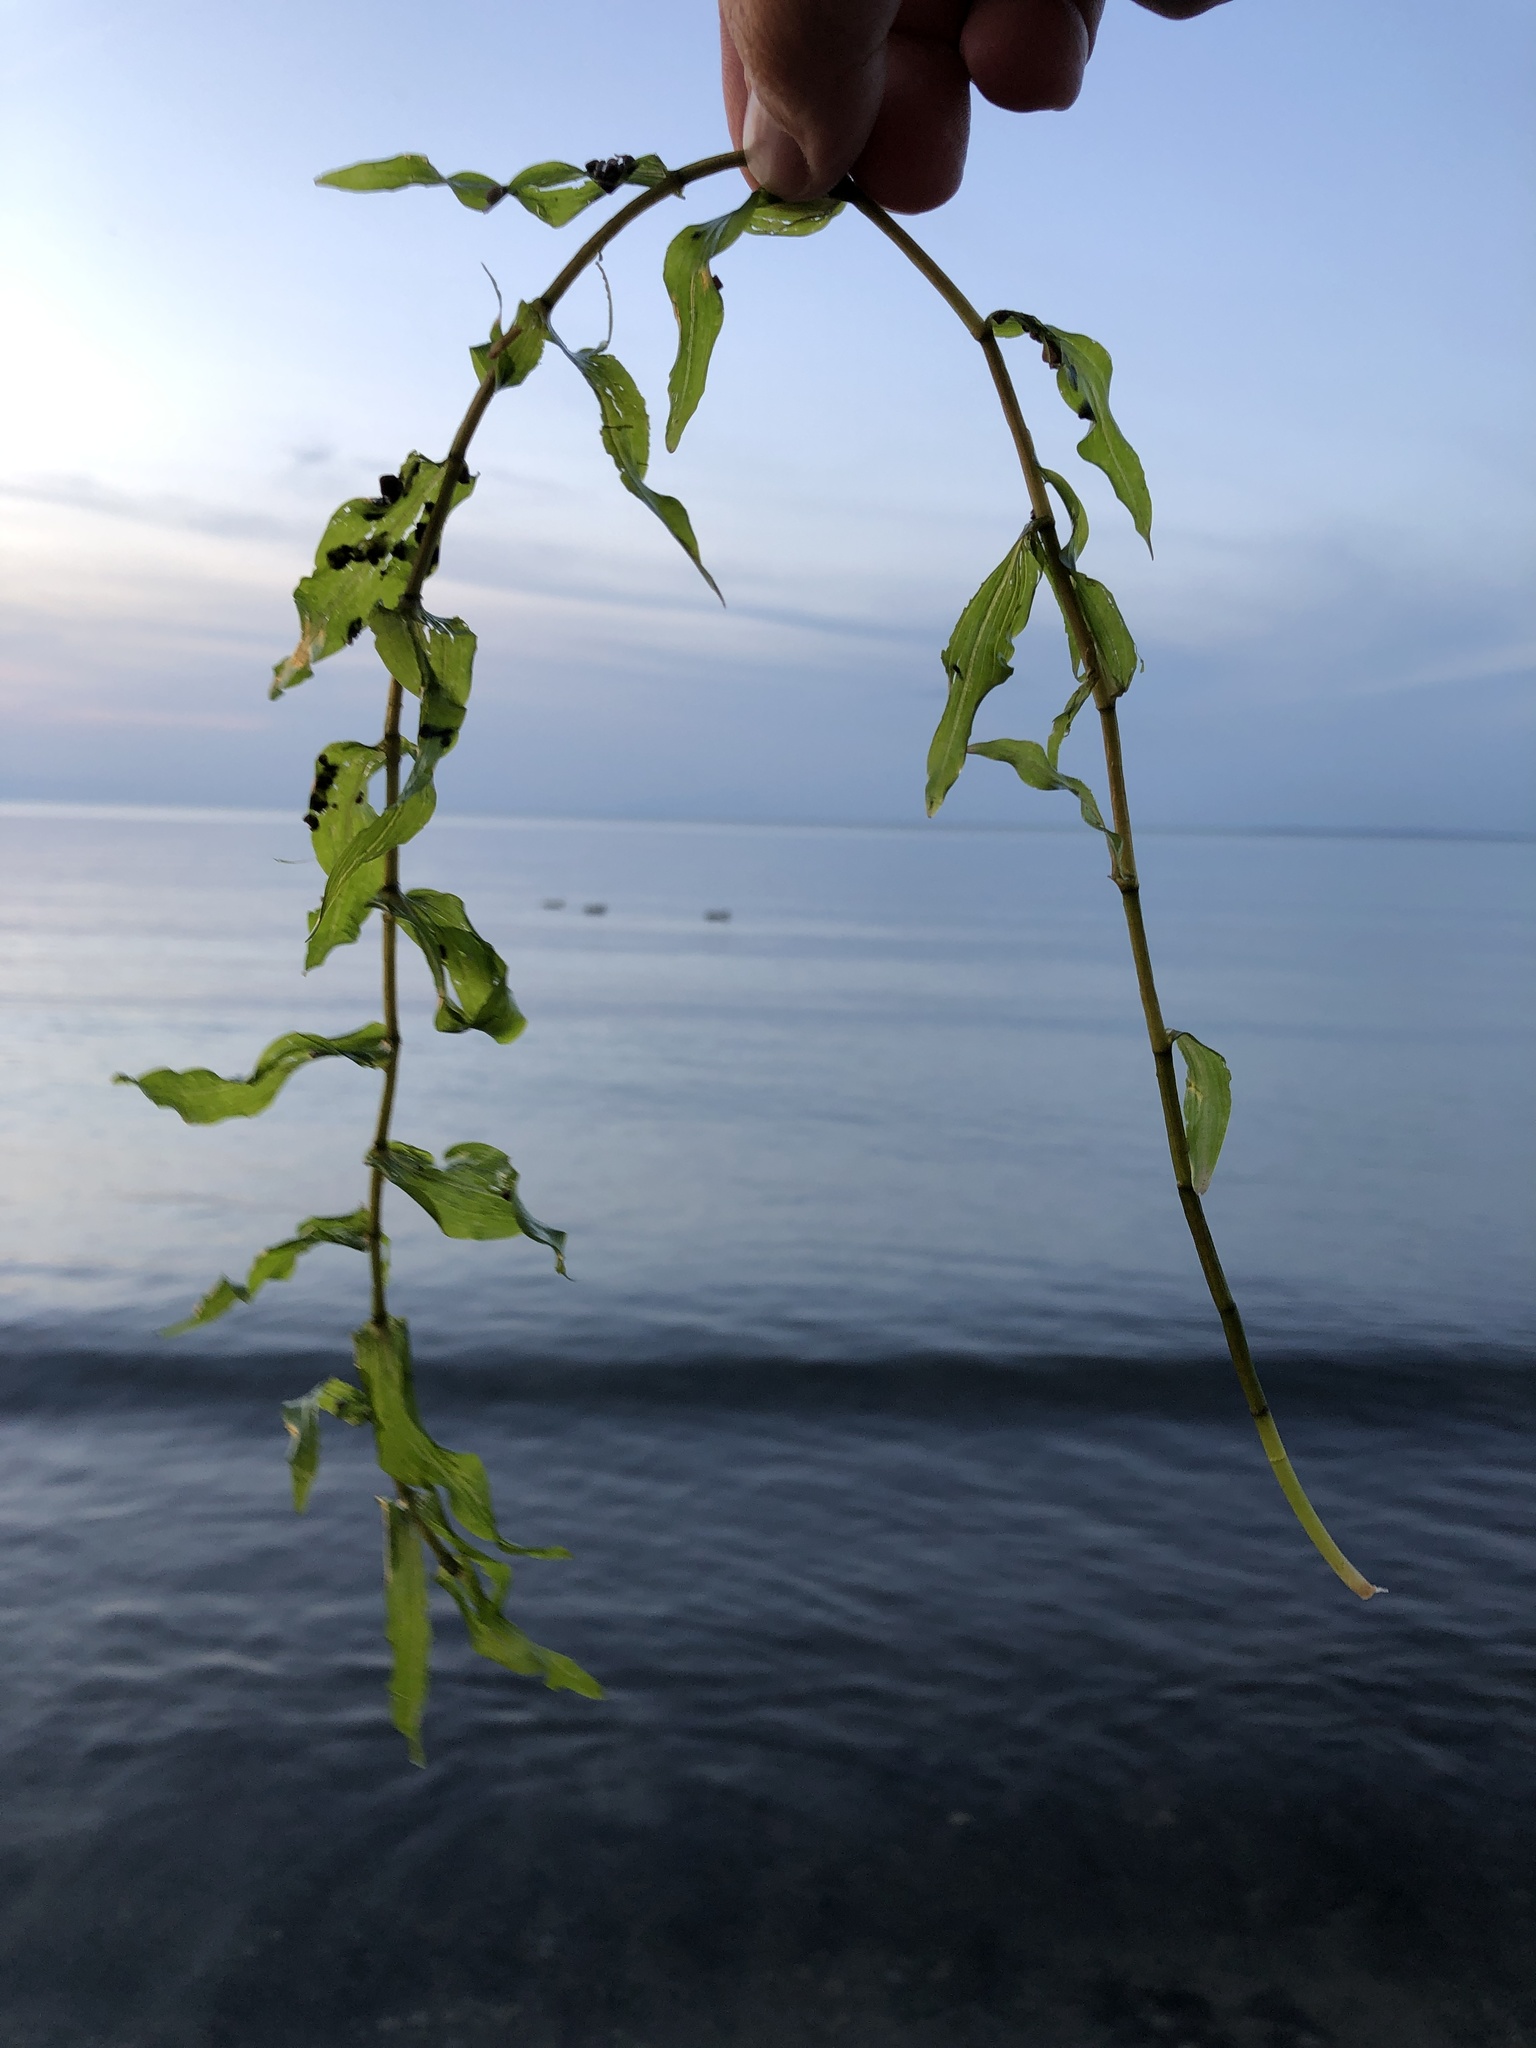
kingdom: Plantae
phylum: Tracheophyta
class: Liliopsida
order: Alismatales
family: Potamogetonaceae
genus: Potamogeton
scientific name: Potamogeton richardsonii
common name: Richardson's pondweed
